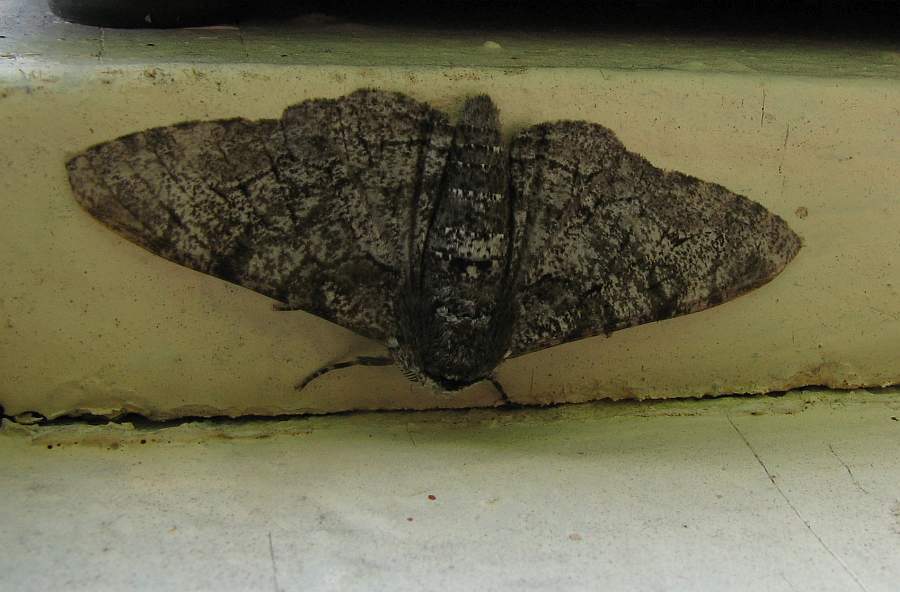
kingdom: Animalia
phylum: Arthropoda
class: Insecta
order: Lepidoptera
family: Geometridae
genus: Biston
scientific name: Biston betularia
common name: Peppered moth
